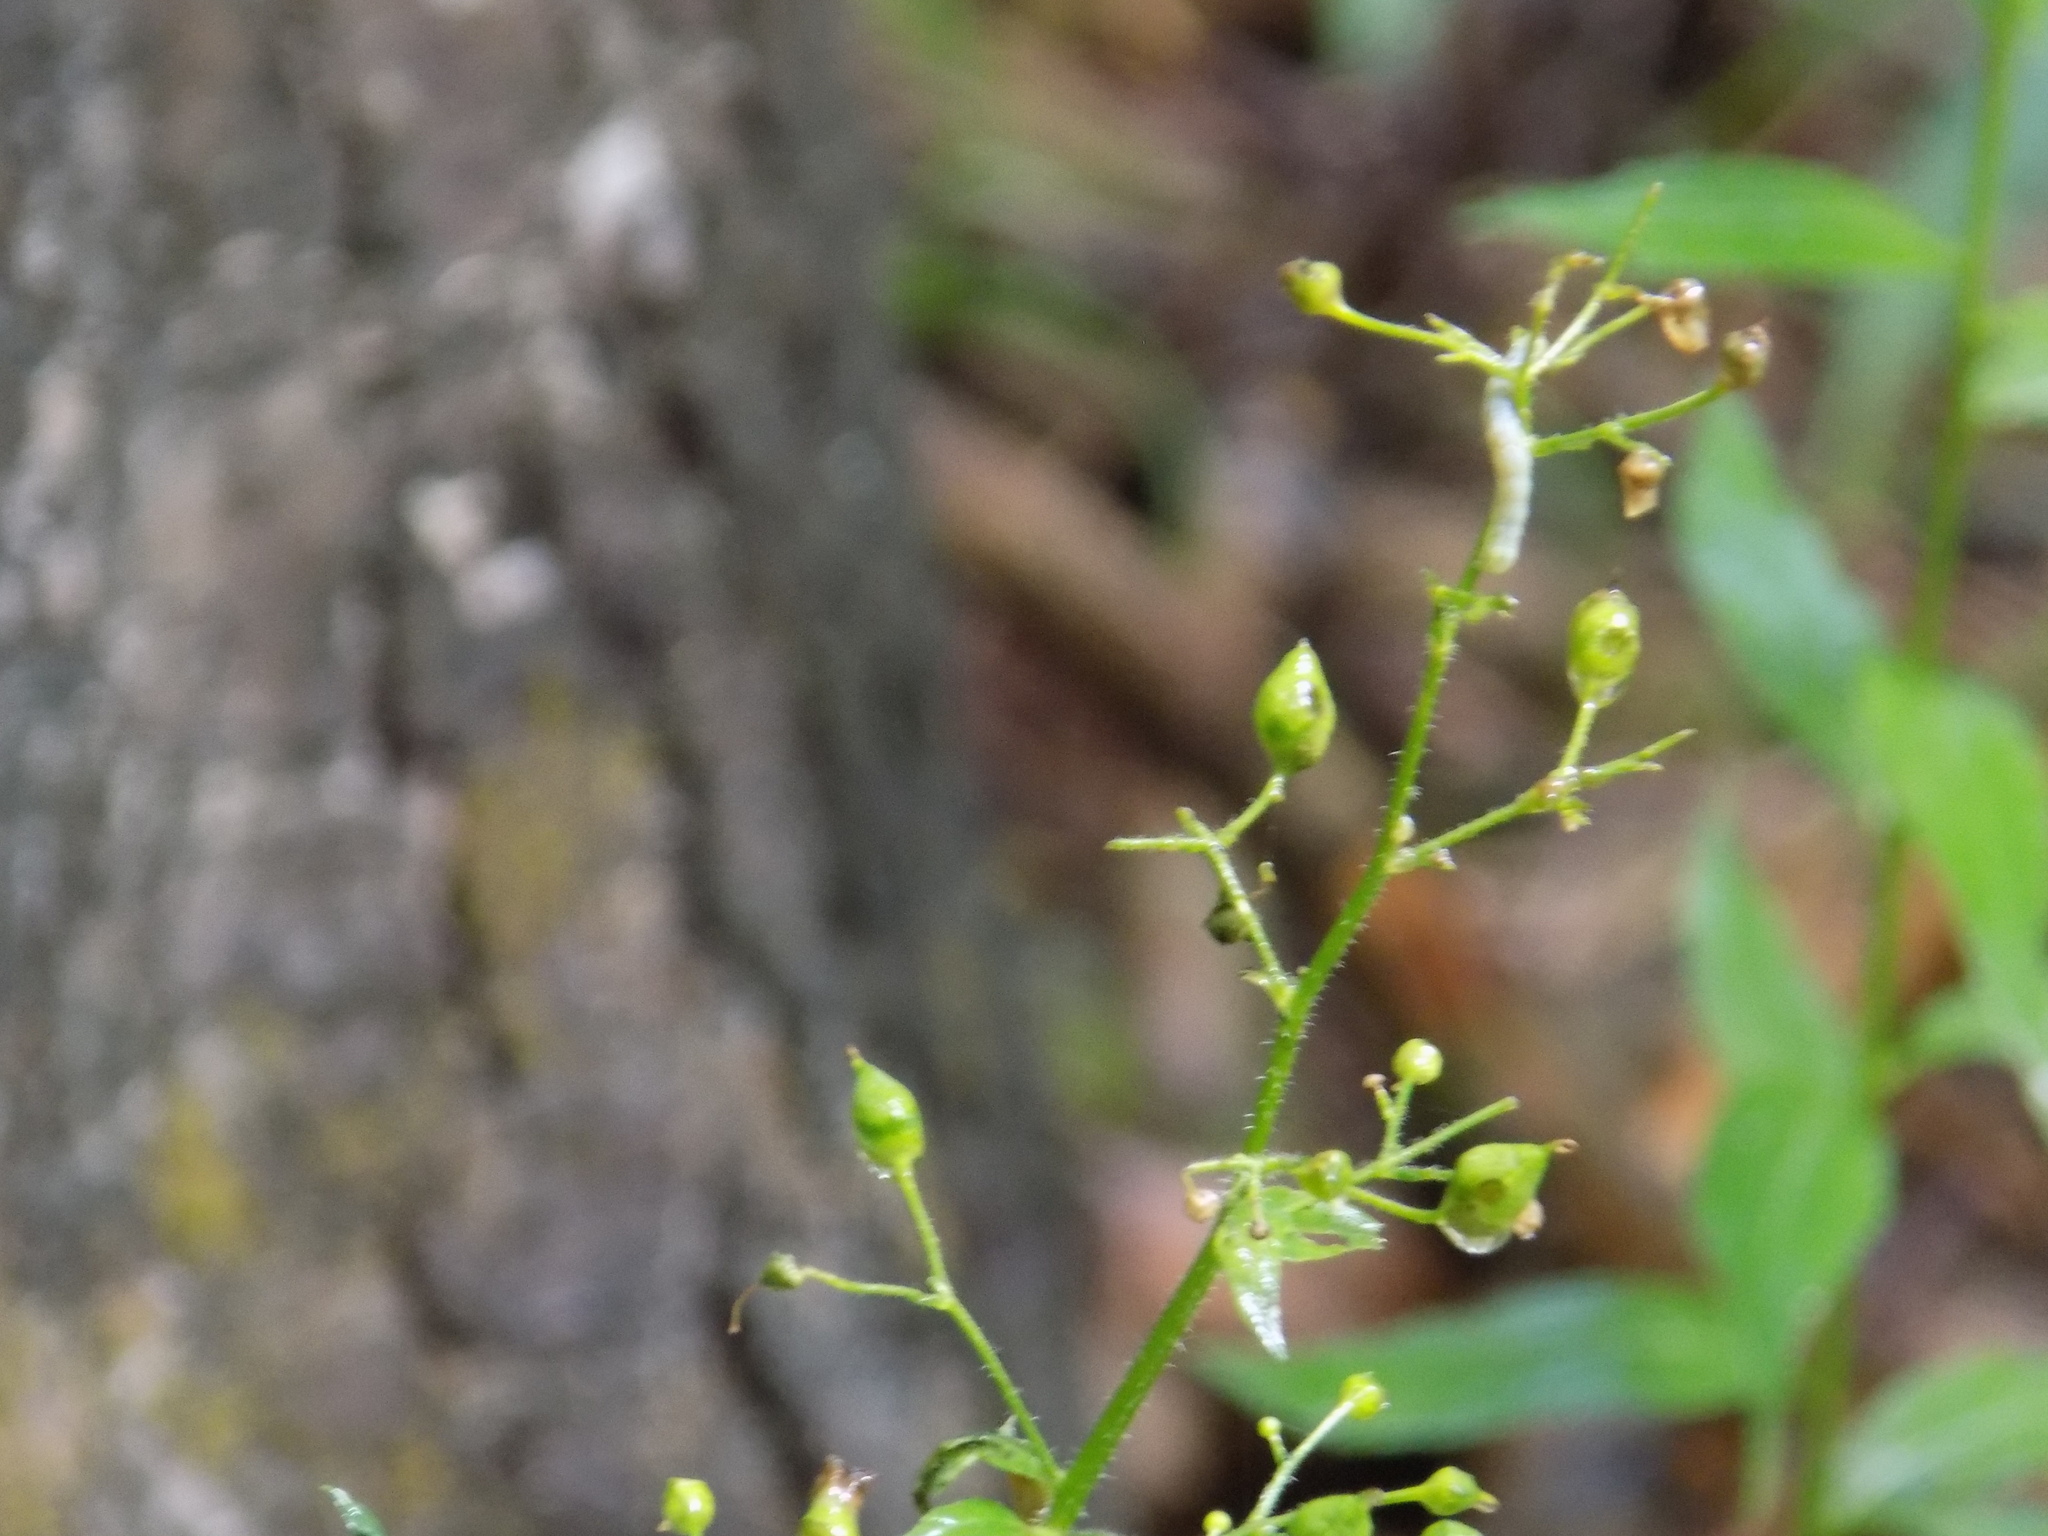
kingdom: Plantae
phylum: Tracheophyta
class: Magnoliopsida
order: Lamiales
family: Scrophulariaceae
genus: Scrophularia
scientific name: Scrophularia nodosa
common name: Common figwort
